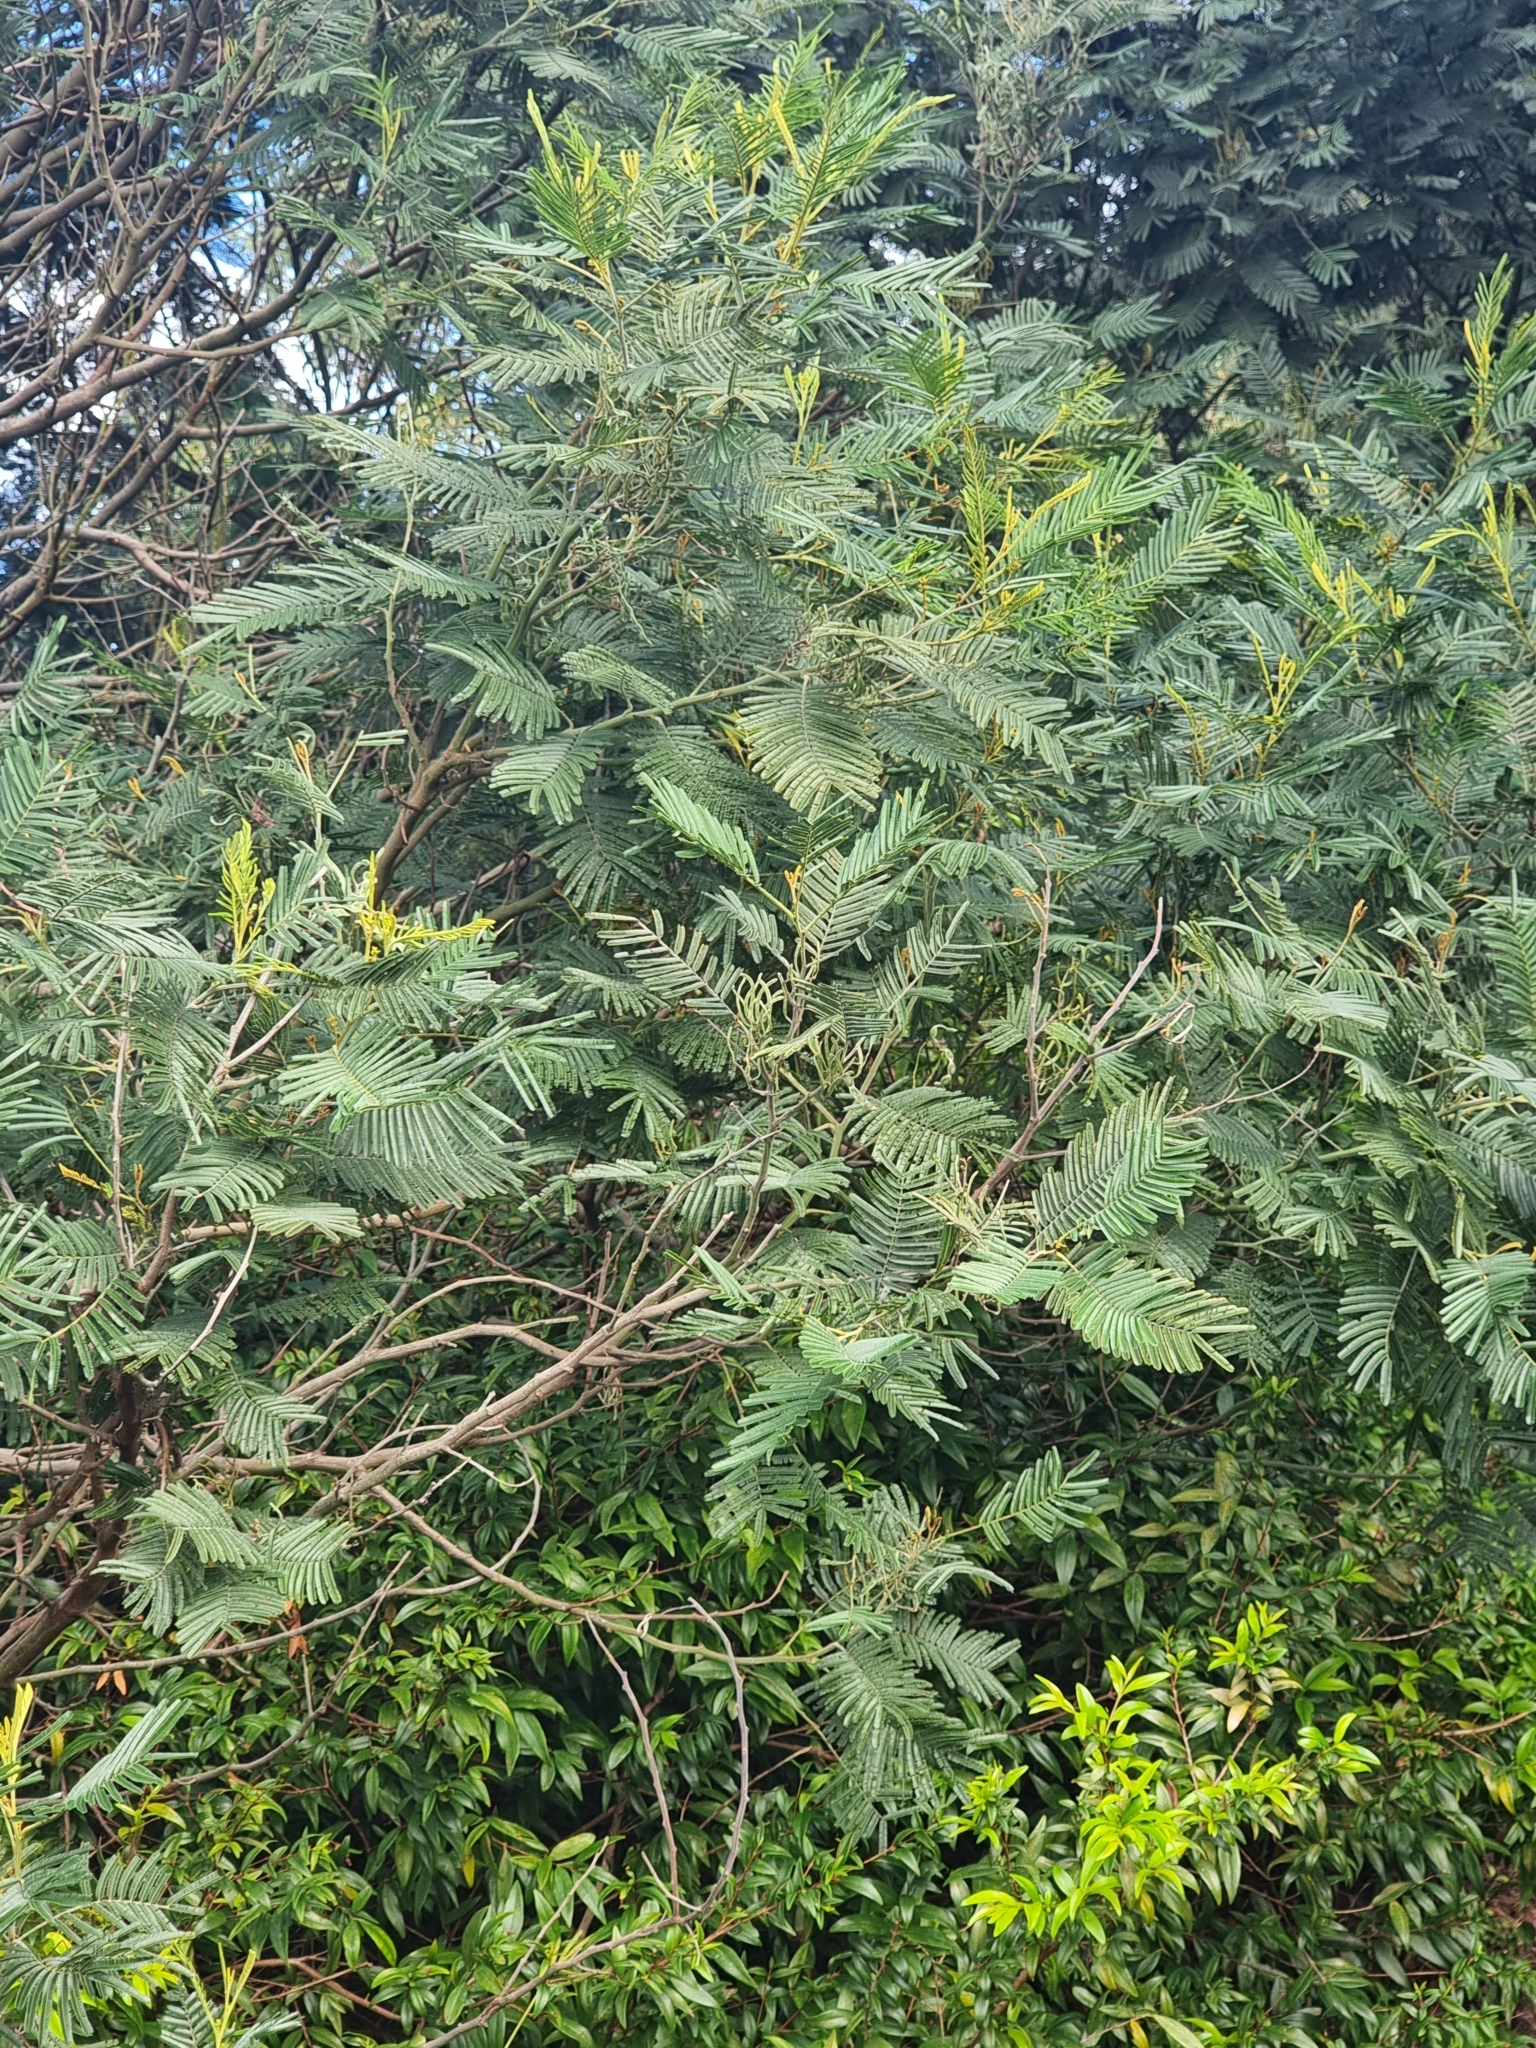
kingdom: Plantae
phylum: Tracheophyta
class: Magnoliopsida
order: Fabales
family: Fabaceae
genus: Acacia
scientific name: Acacia mearnsii
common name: Black wattle
